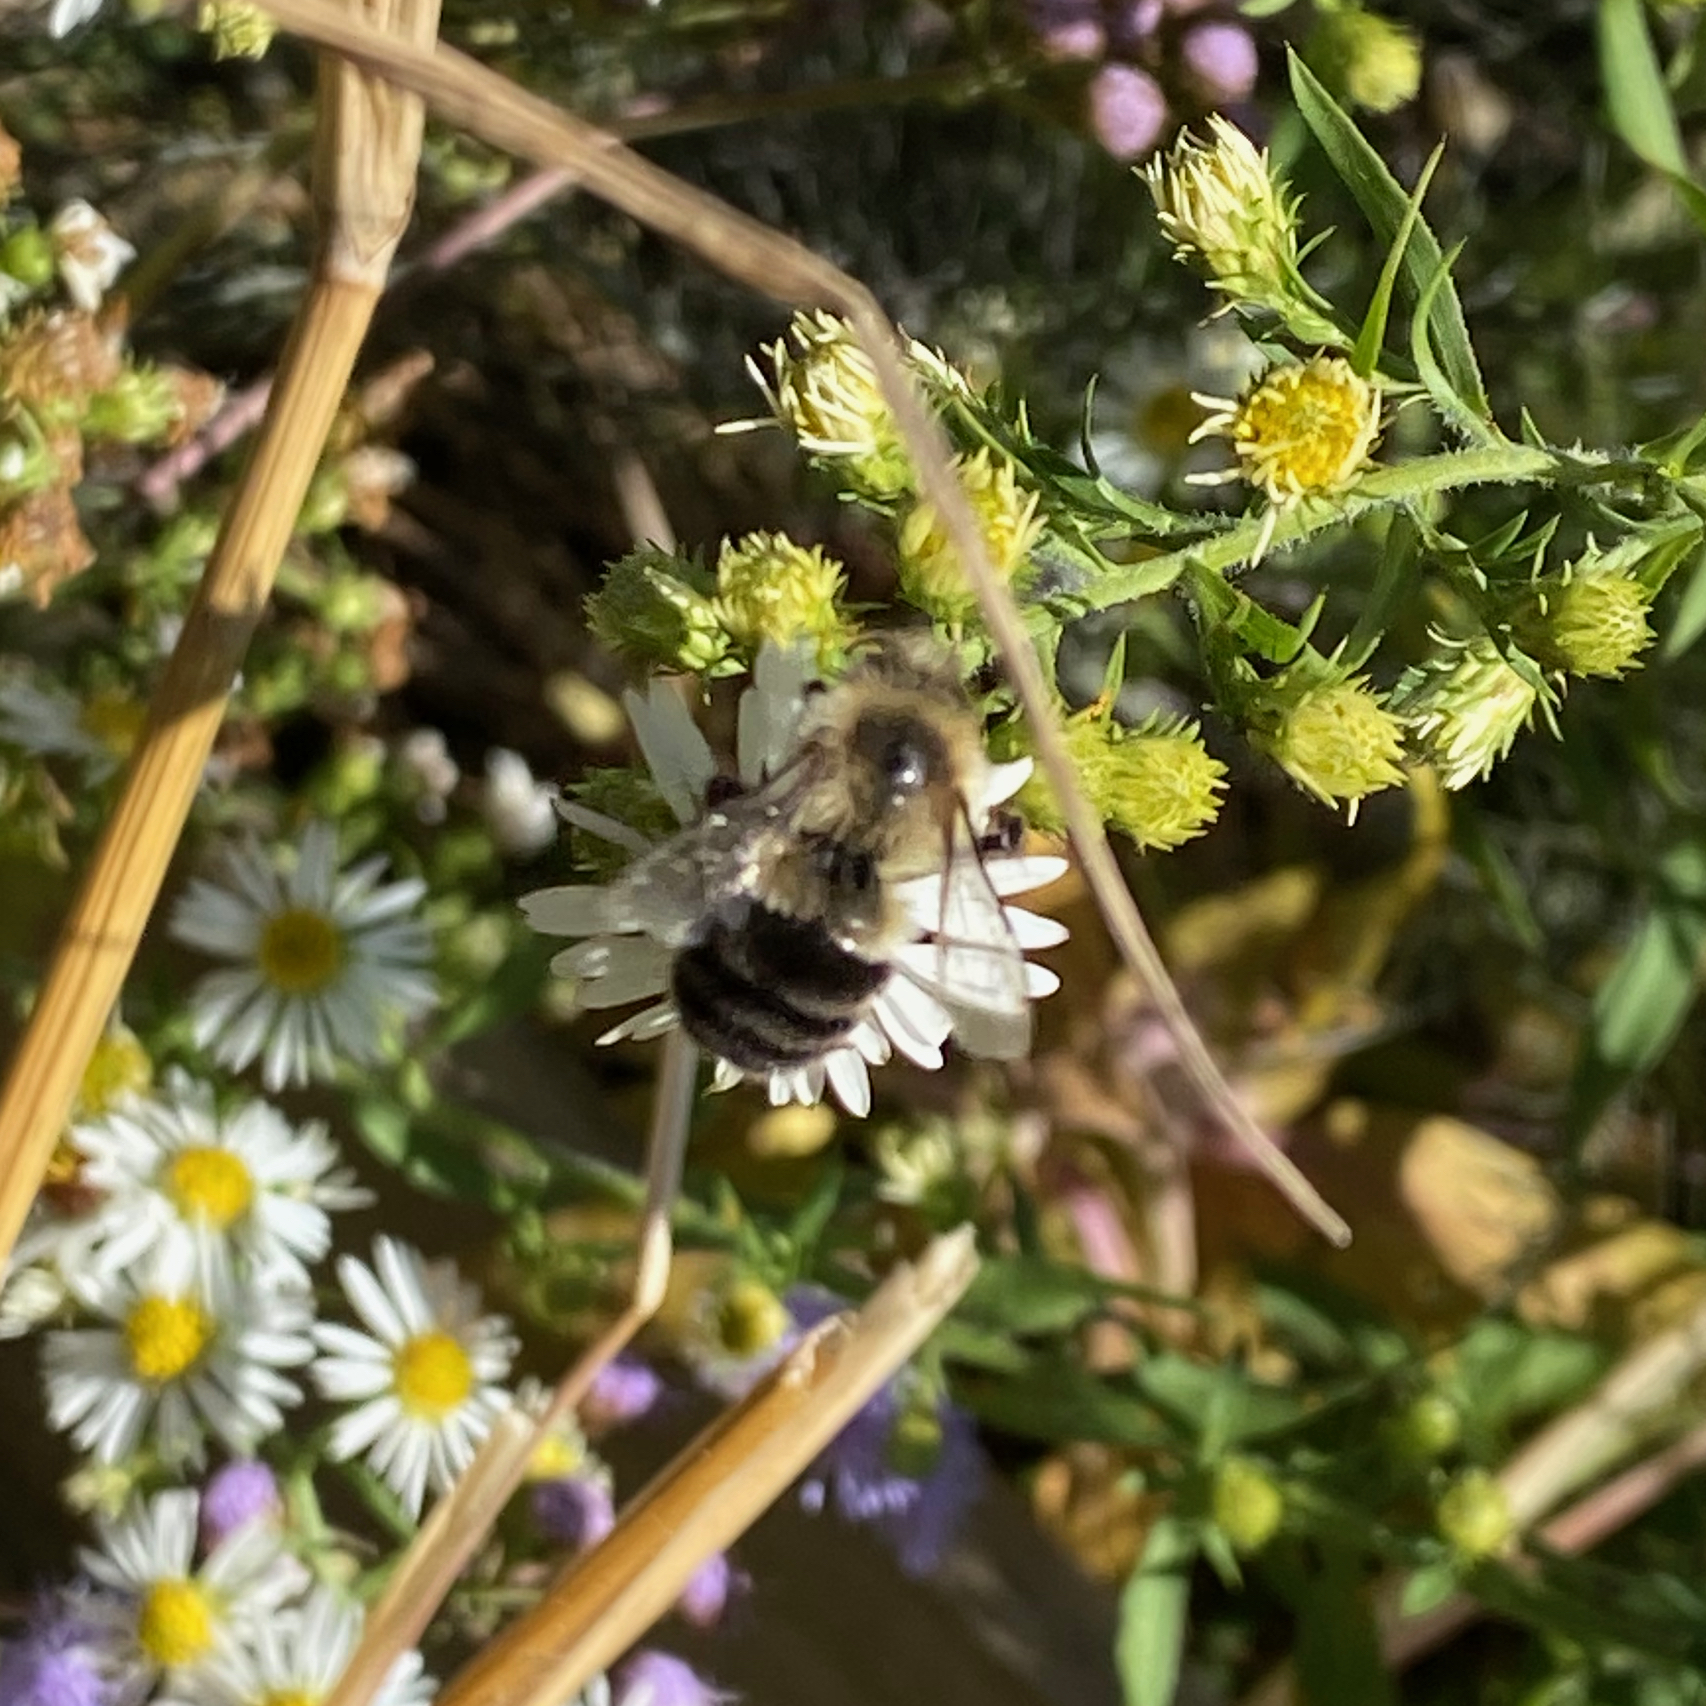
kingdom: Animalia
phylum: Arthropoda
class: Insecta
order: Hymenoptera
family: Apidae
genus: Bombus
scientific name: Bombus impatiens
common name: Common eastern bumble bee
